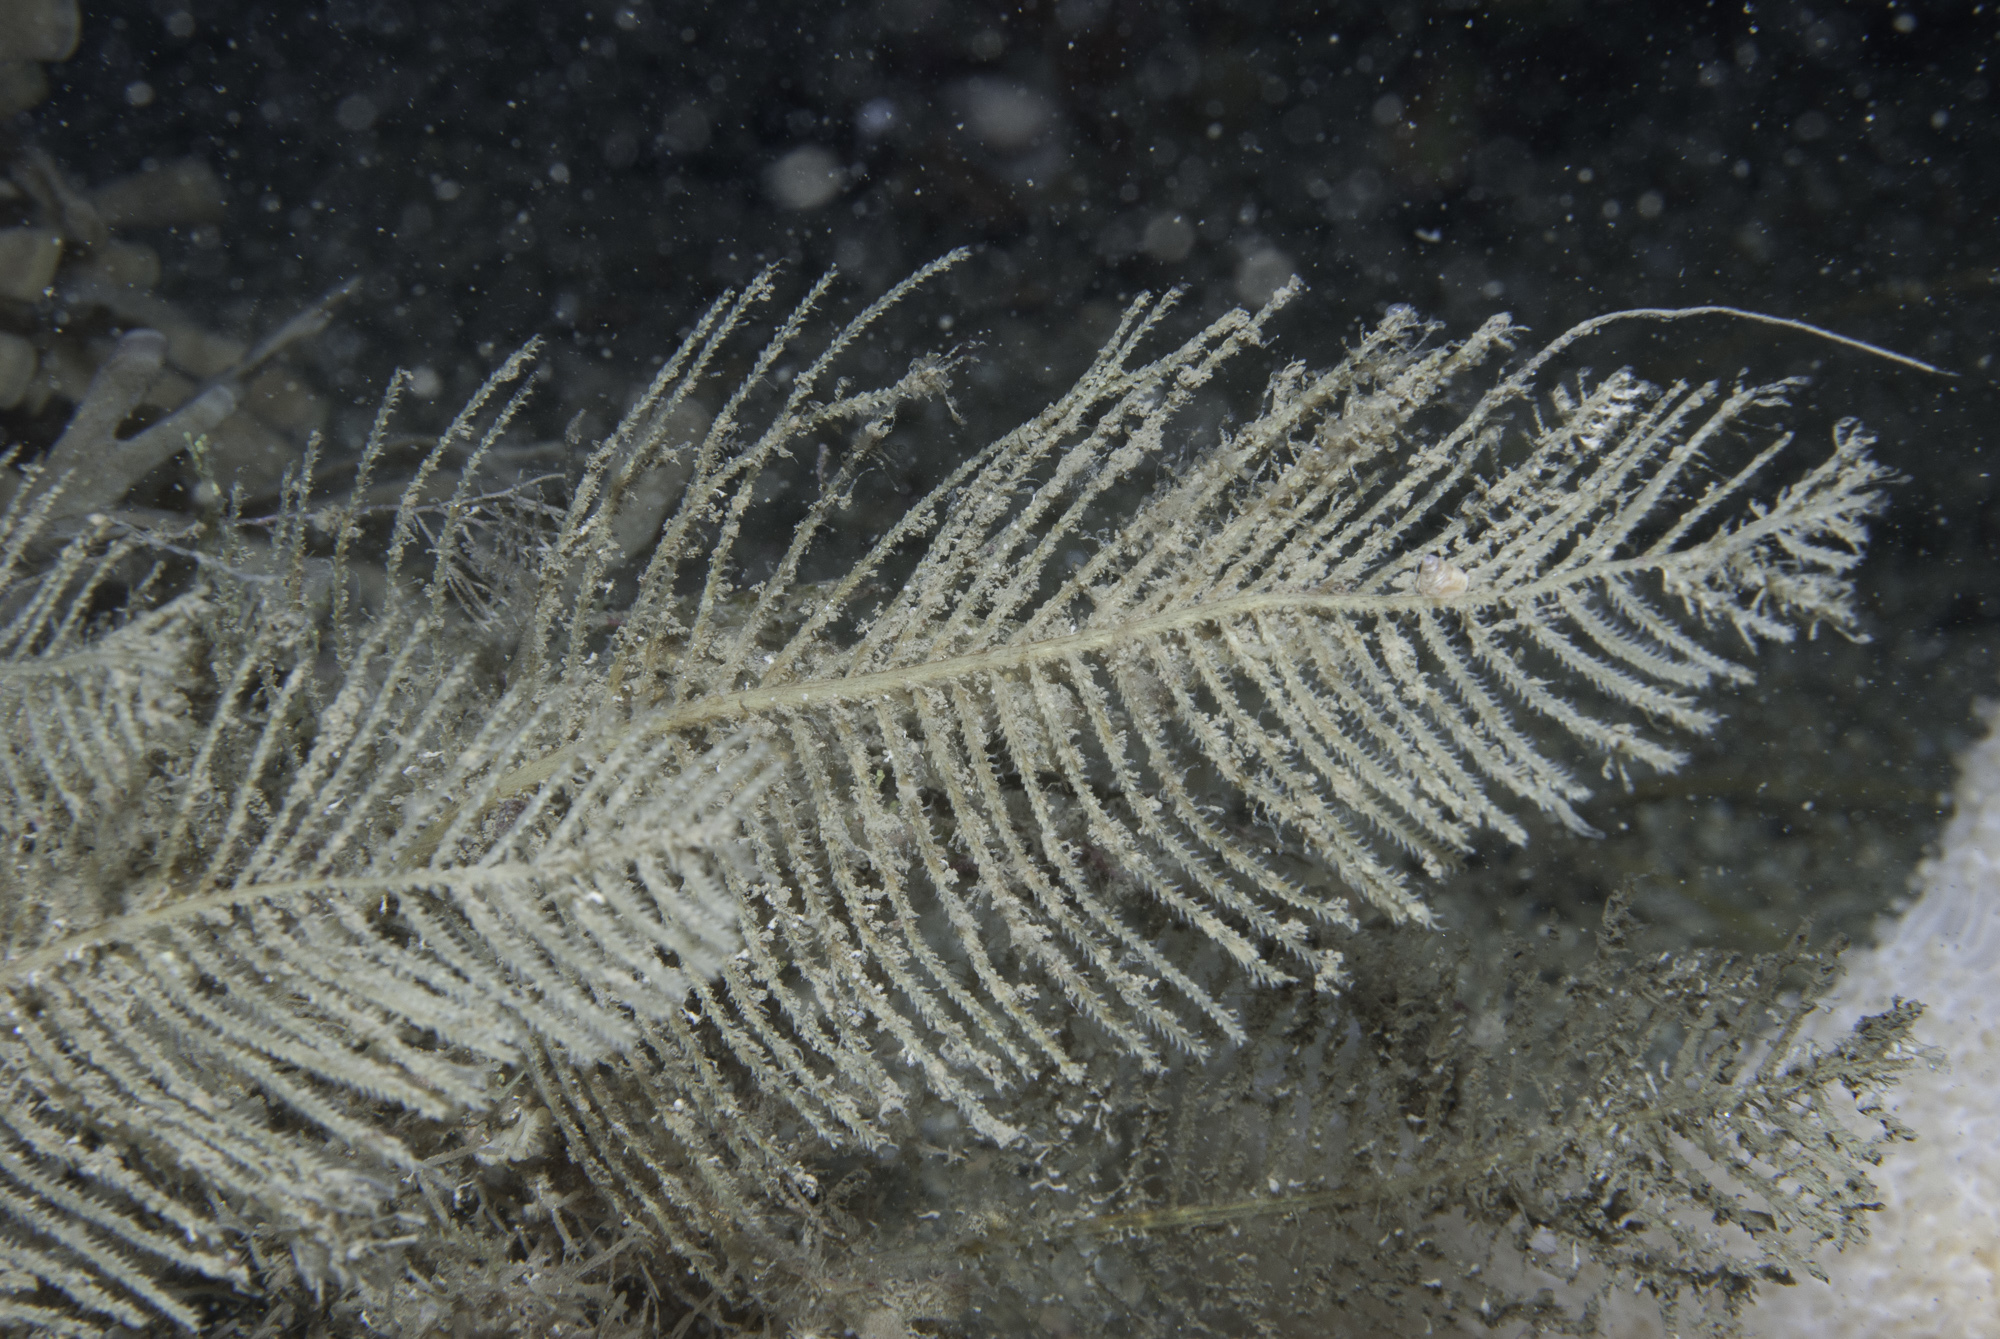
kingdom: Animalia
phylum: Cnidaria
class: Hydrozoa
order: Leptothecata
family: Sertulariidae
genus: Thuiaria
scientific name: Thuiaria articulata
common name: Sea spleenwort
